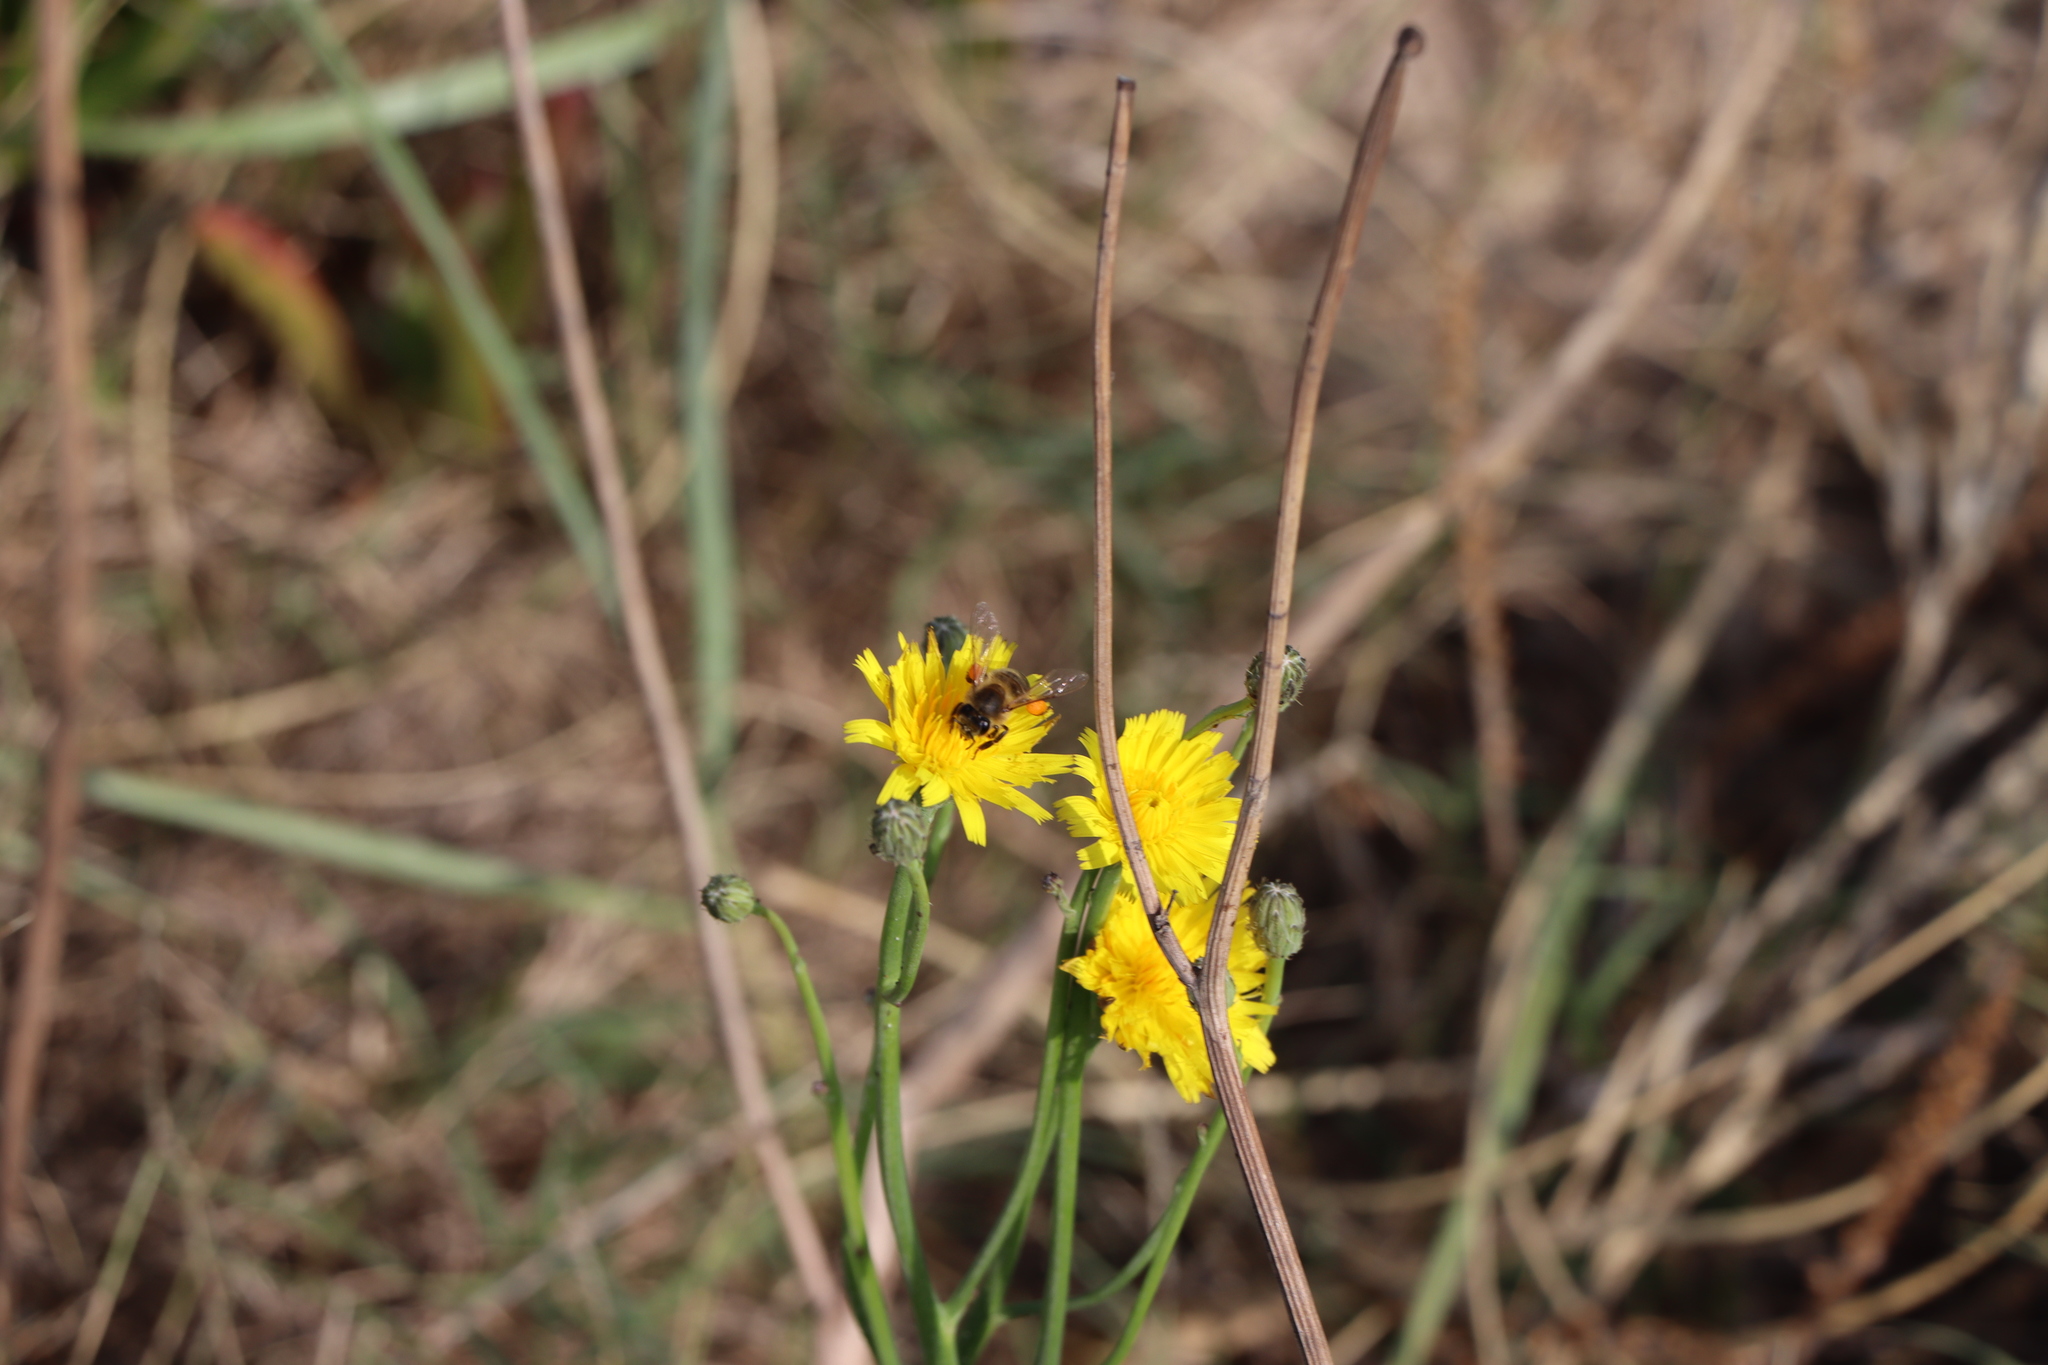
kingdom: Animalia
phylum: Arthropoda
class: Insecta
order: Hymenoptera
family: Apidae
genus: Apis
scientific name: Apis mellifera
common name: Honey bee
